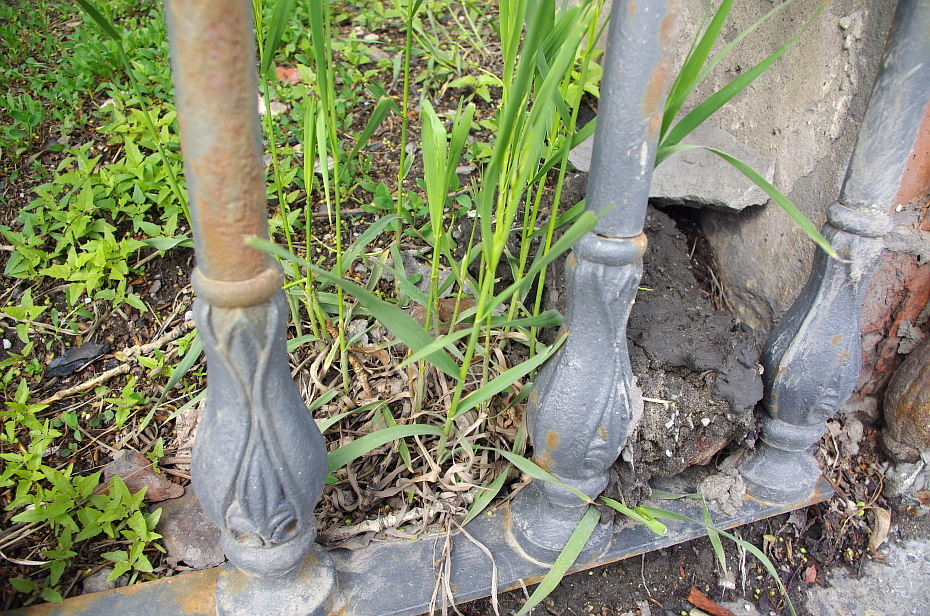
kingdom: Plantae
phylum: Tracheophyta
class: Magnoliopsida
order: Caryophyllales
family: Amaranthaceae
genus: Chenopodiastrum
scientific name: Chenopodiastrum hybridum
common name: Mapleleaf goosefoot
